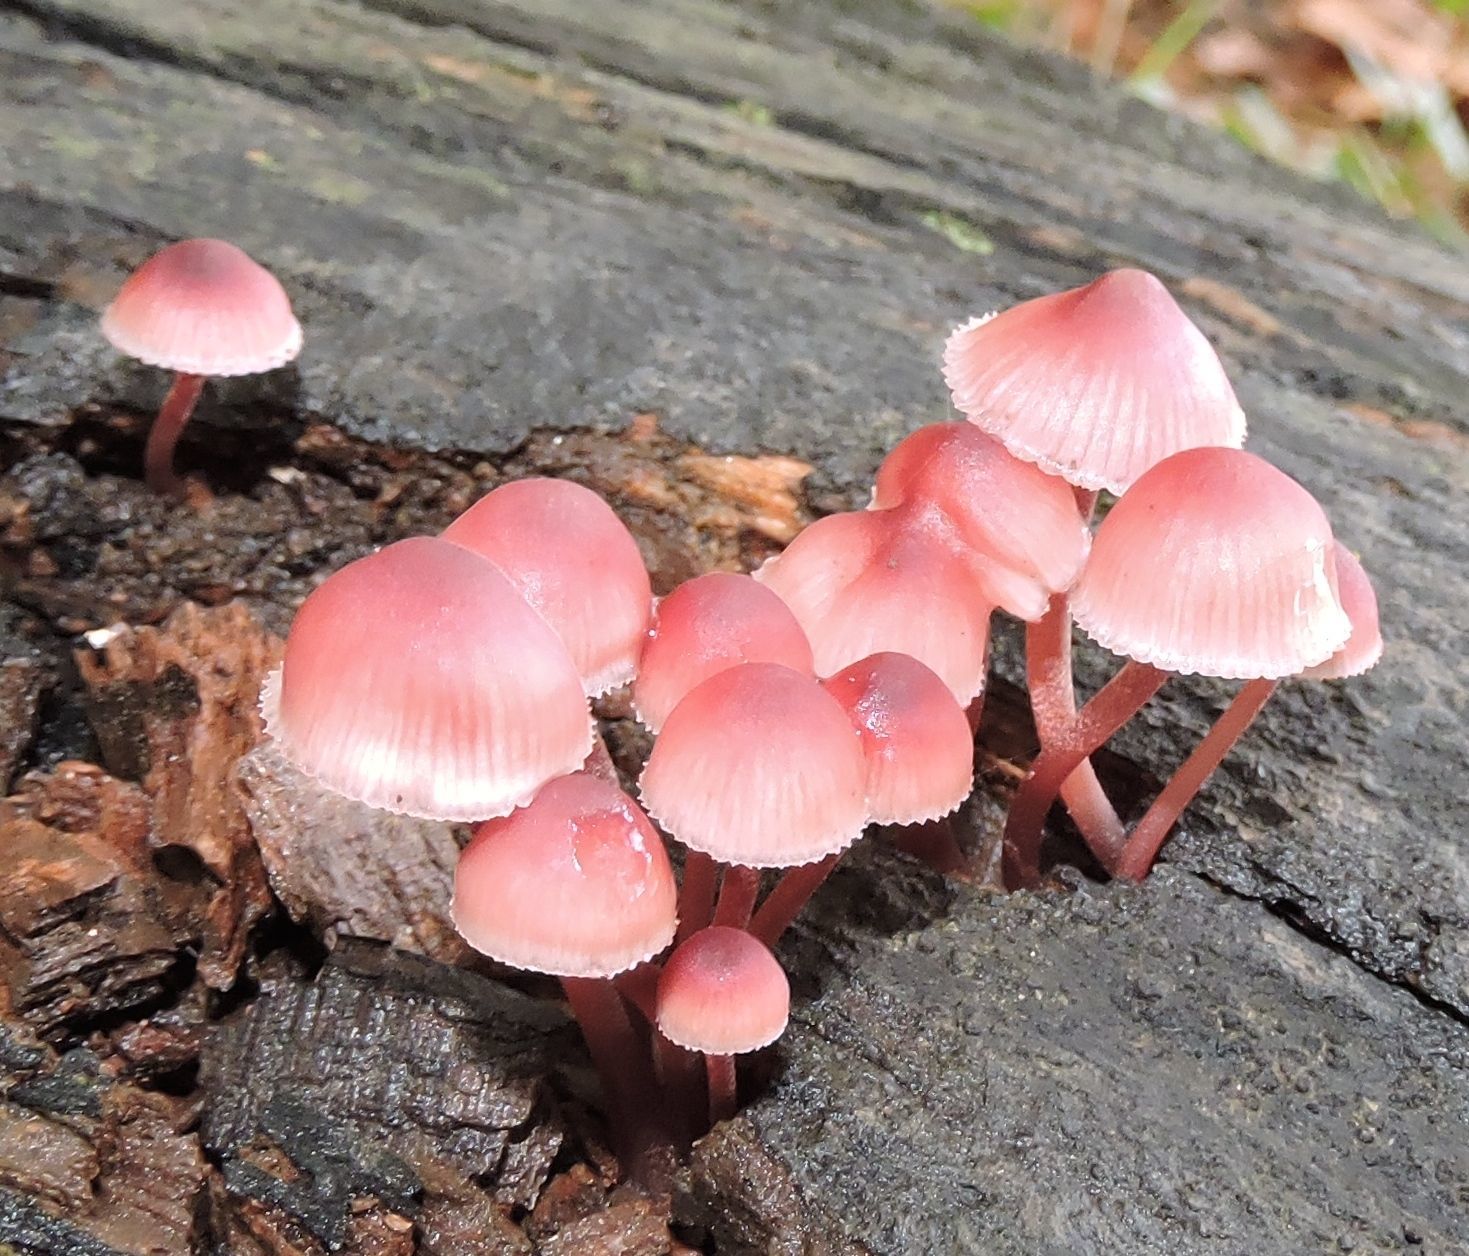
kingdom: Fungi
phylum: Basidiomycota
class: Agaricomycetes
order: Agaricales
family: Mycenaceae
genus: Mycena
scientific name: Mycena haematopus
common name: Burgundydrop bonnet
